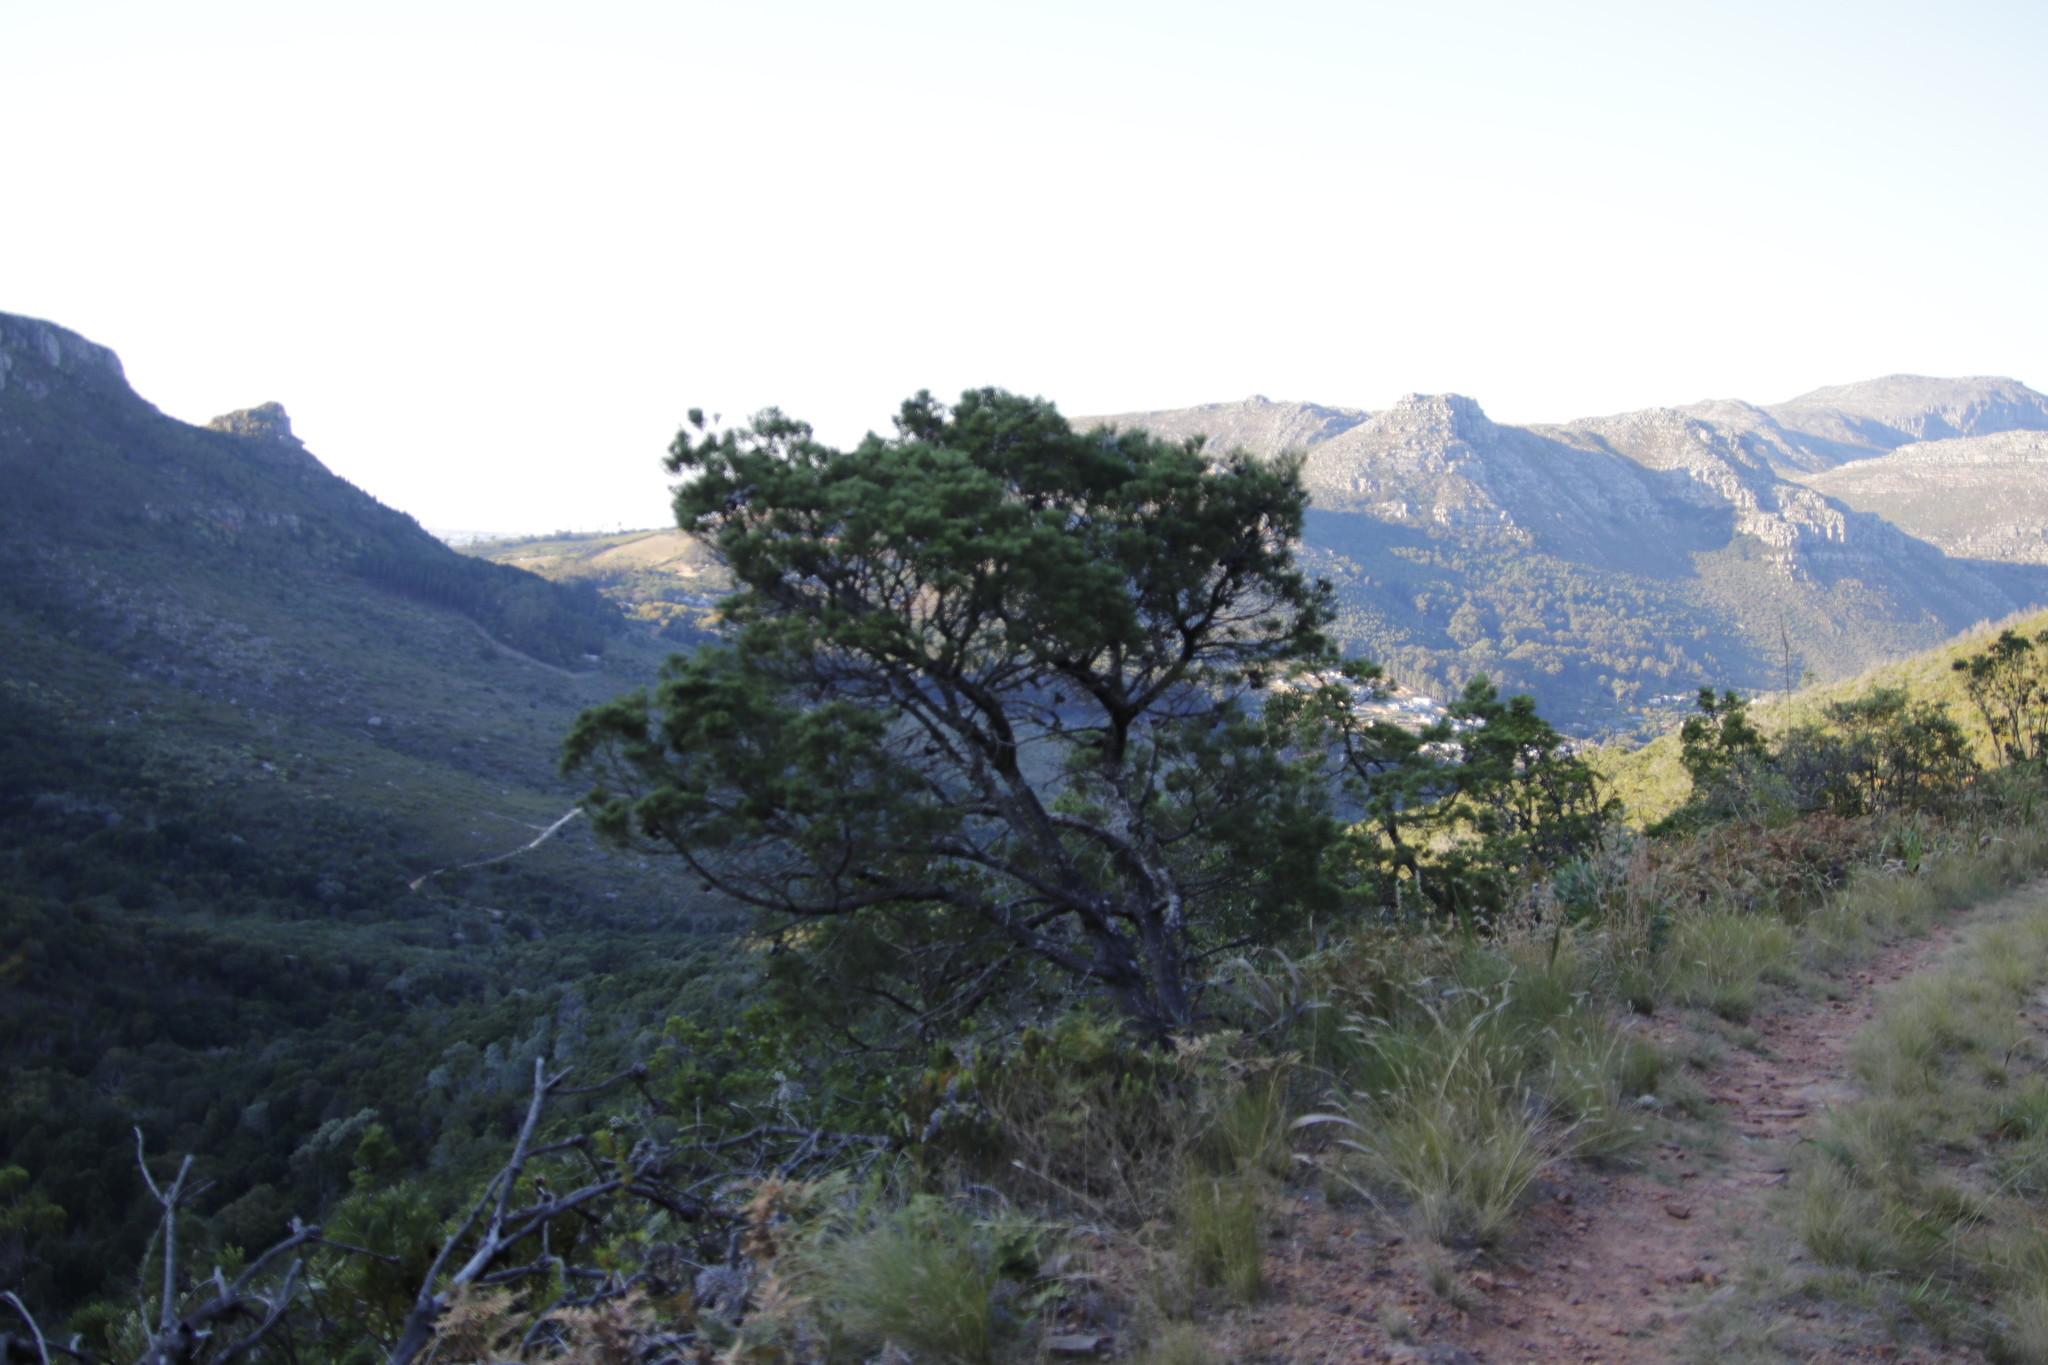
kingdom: Plantae
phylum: Tracheophyta
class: Pinopsida
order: Pinales
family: Cupressaceae
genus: Widdringtonia
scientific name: Widdringtonia nodiflora
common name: Cape cypress
